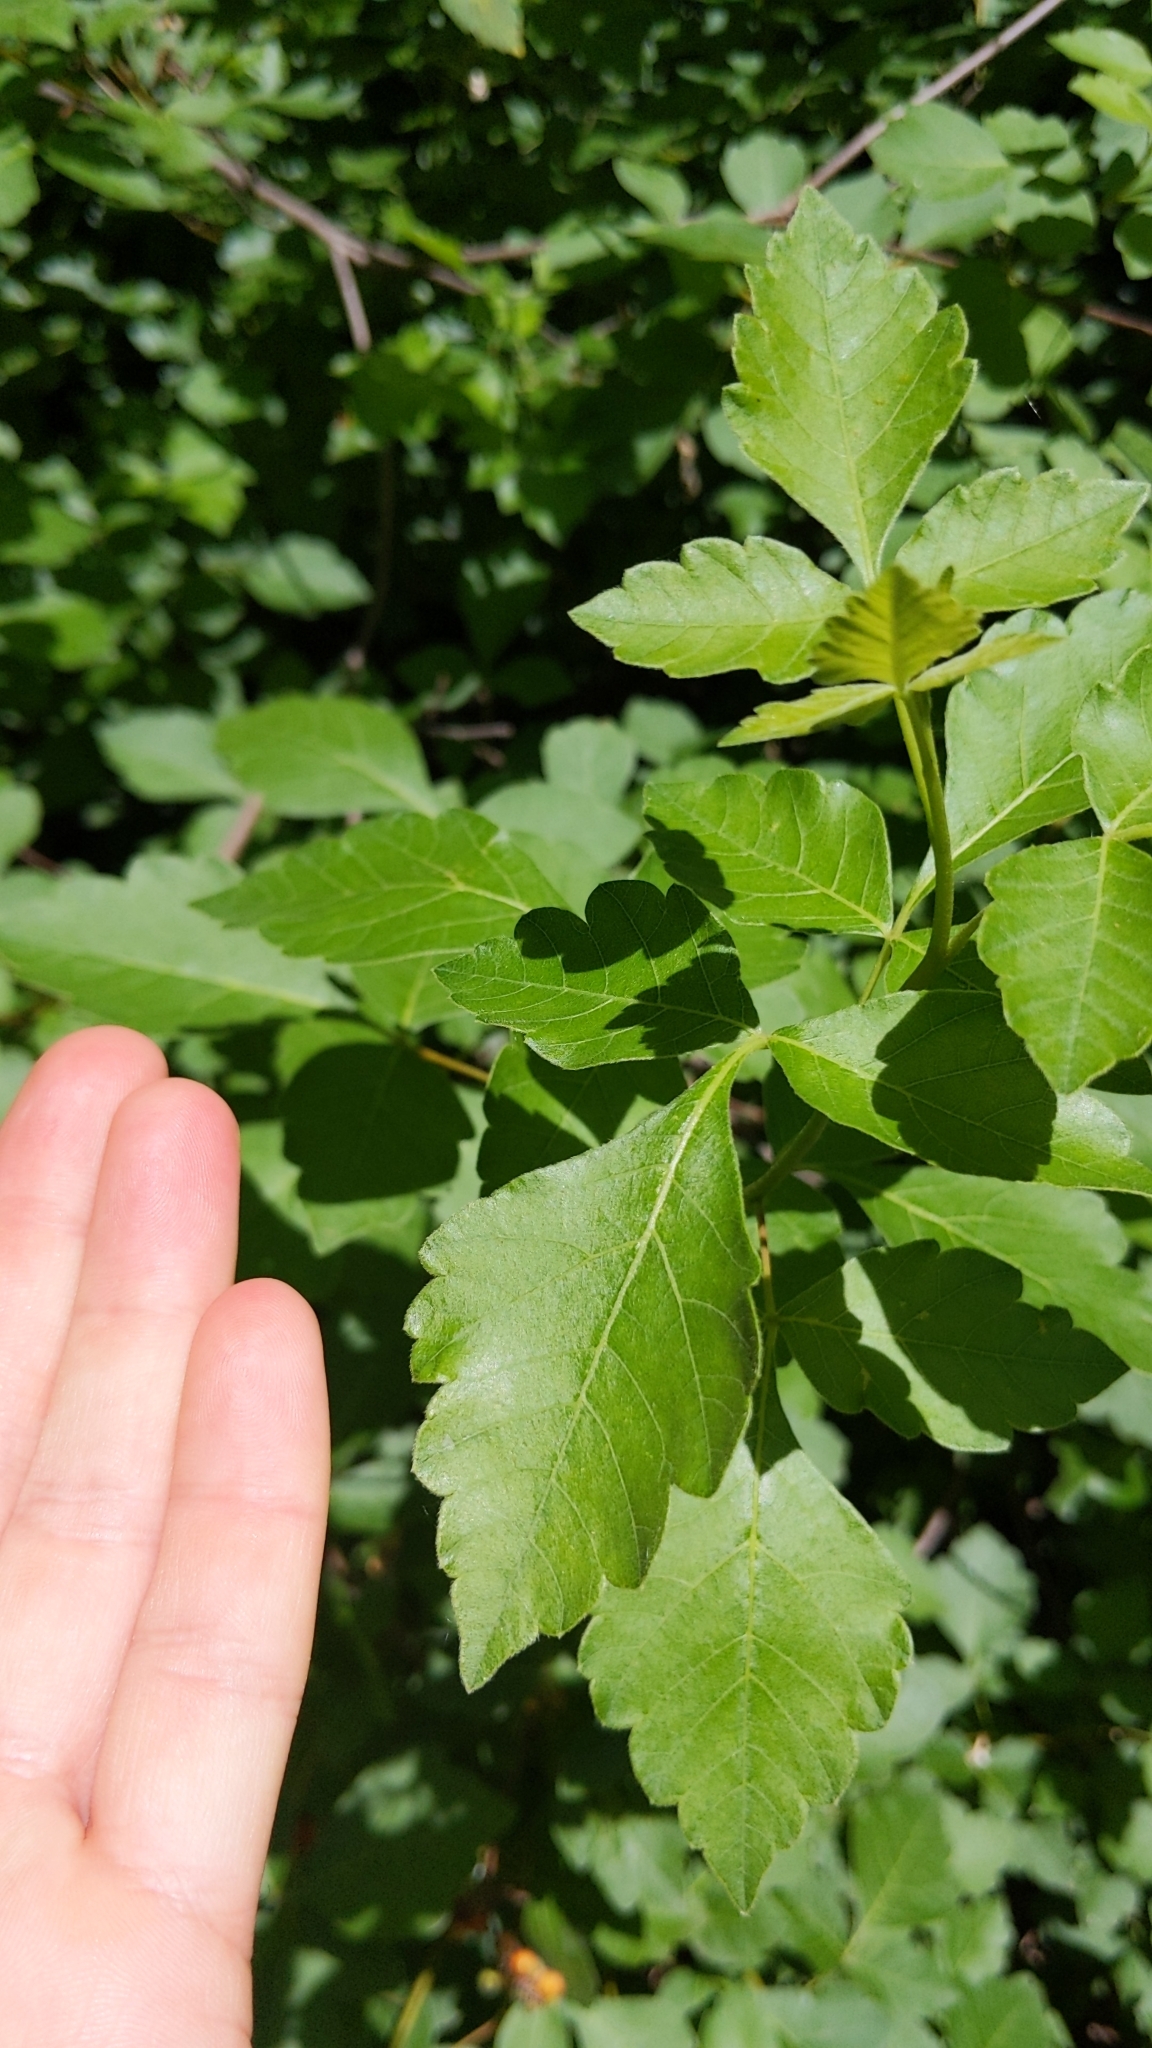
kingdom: Plantae
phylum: Tracheophyta
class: Magnoliopsida
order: Sapindales
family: Anacardiaceae
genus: Rhus
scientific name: Rhus aromatica
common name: Aromatic sumac
